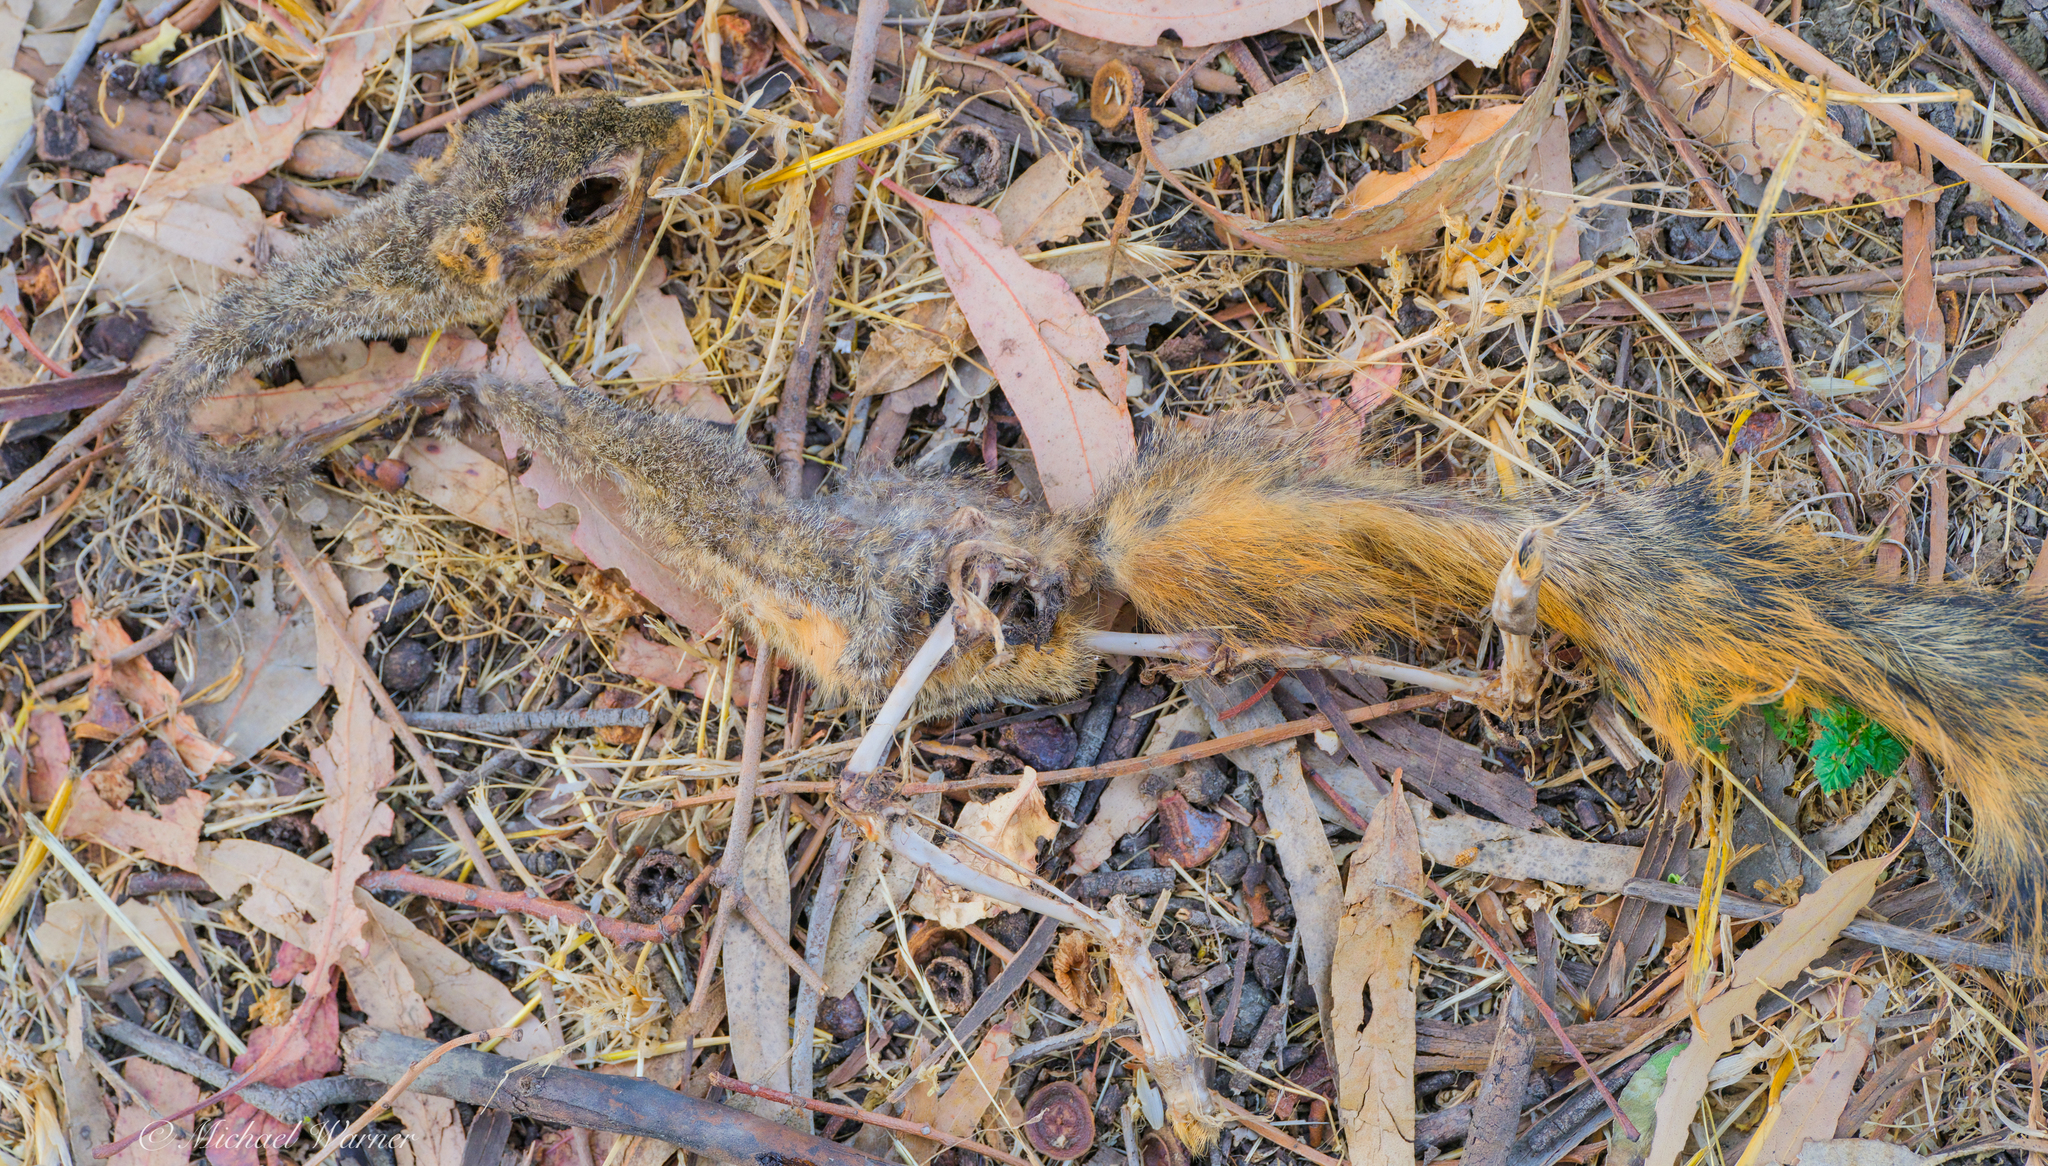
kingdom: Animalia
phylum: Chordata
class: Mammalia
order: Rodentia
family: Sciuridae
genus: Sciurus
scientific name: Sciurus niger
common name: Fox squirrel
